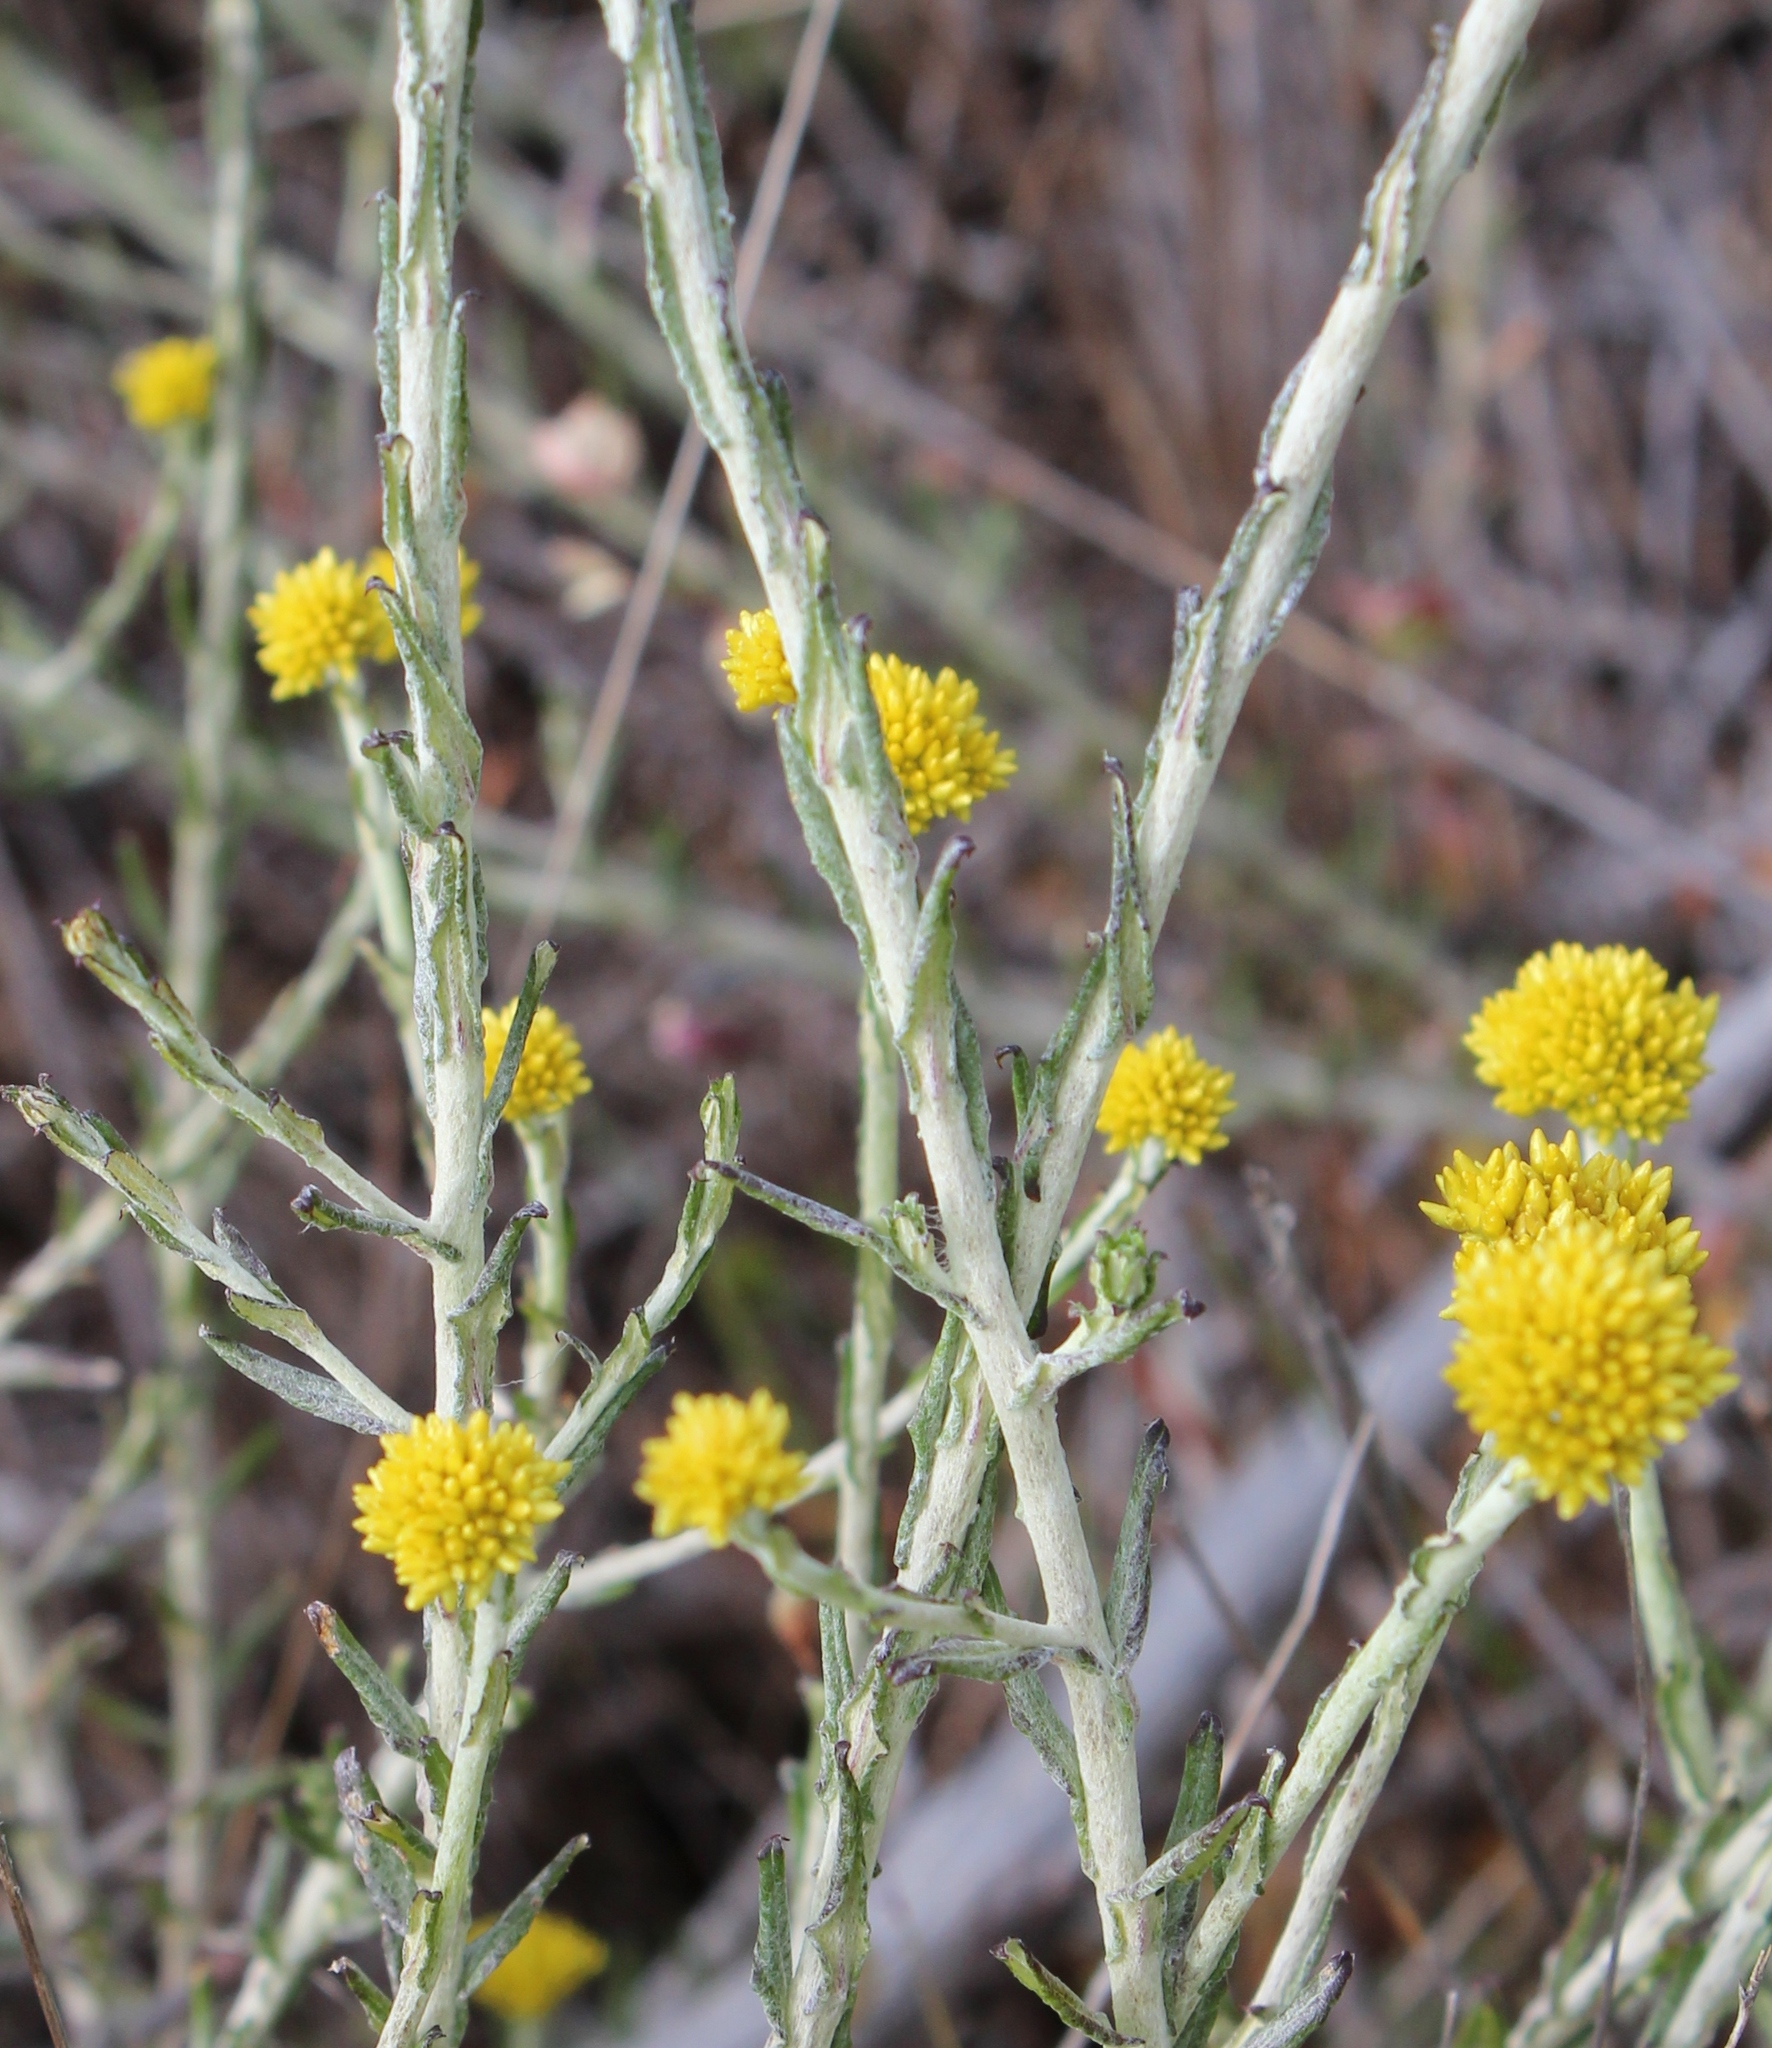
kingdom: Plantae
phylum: Tracheophyta
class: Magnoliopsida
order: Asterales
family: Asteraceae
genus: Helichrysum
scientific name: Helichrysum cymosum
